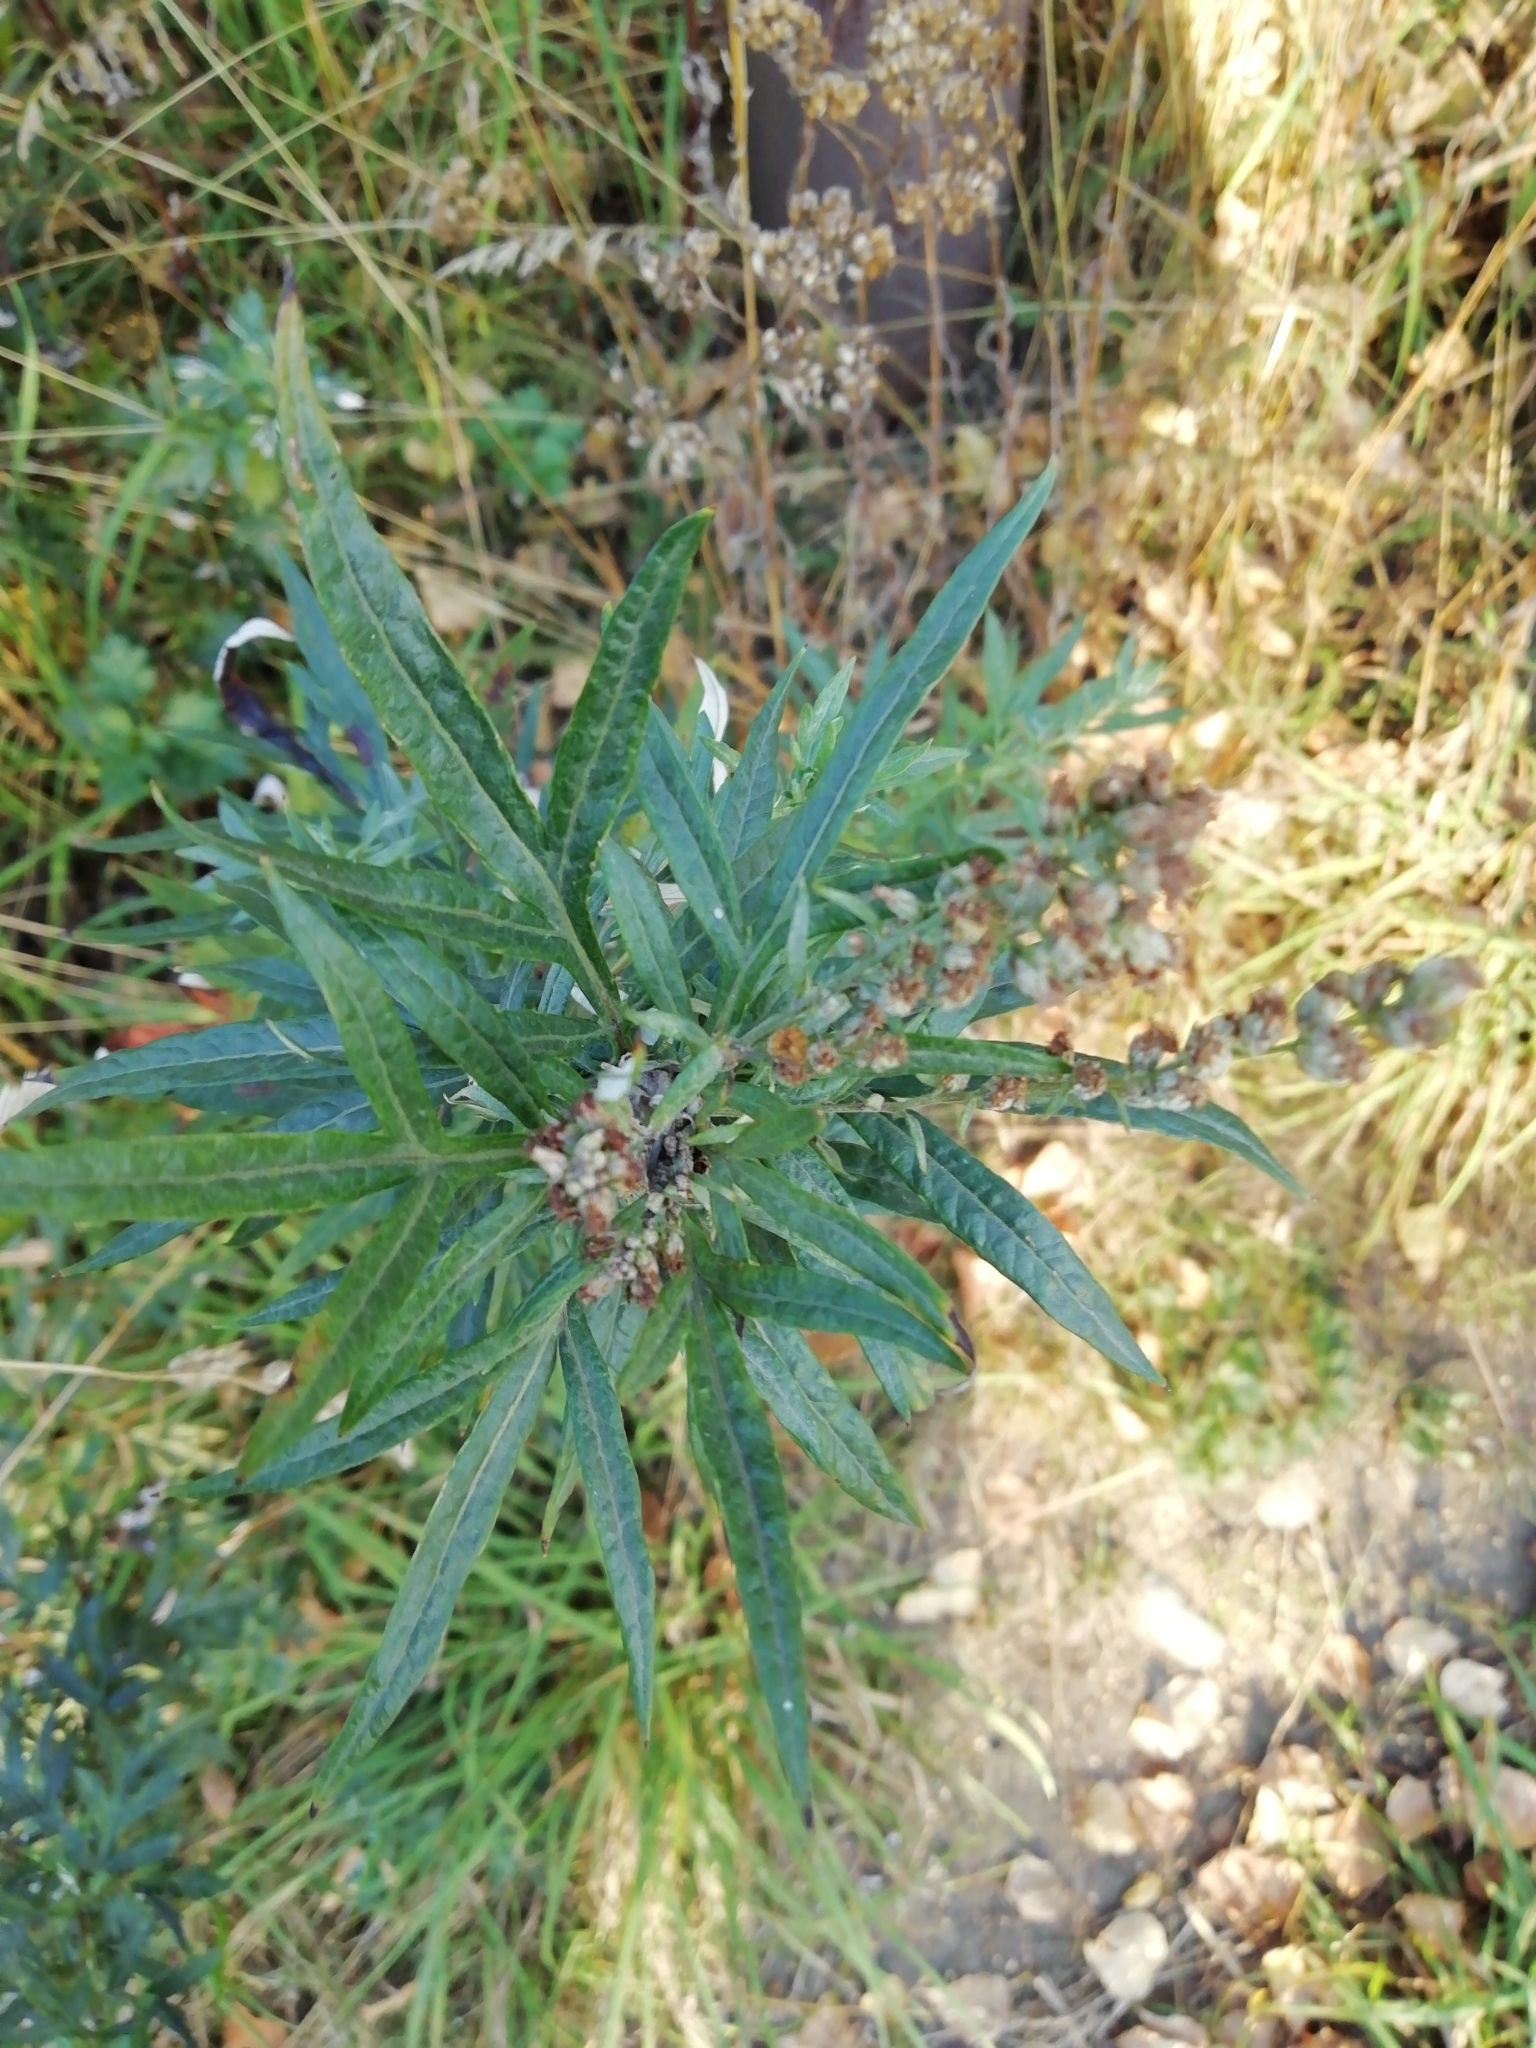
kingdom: Plantae
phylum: Tracheophyta
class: Magnoliopsida
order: Asterales
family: Asteraceae
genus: Artemisia
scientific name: Artemisia vulgaris
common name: Mugwort
